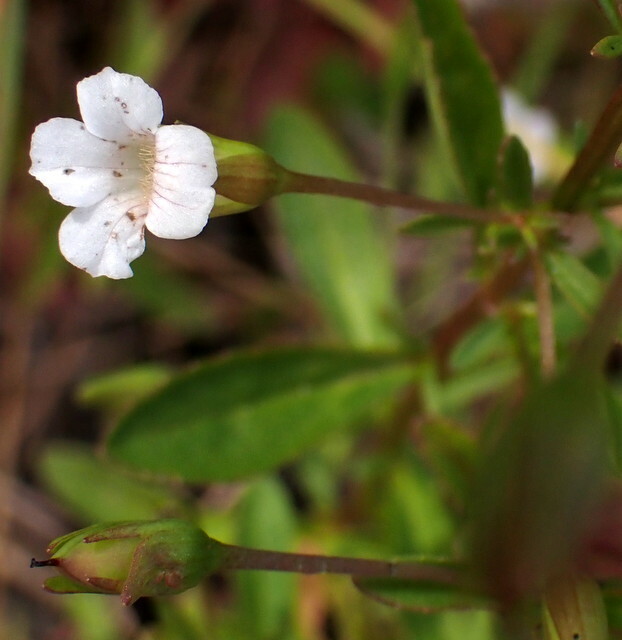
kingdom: Plantae
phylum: Tracheophyta
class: Magnoliopsida
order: Lamiales
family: Plantaginaceae
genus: Mecardonia
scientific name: Mecardonia acuminata
